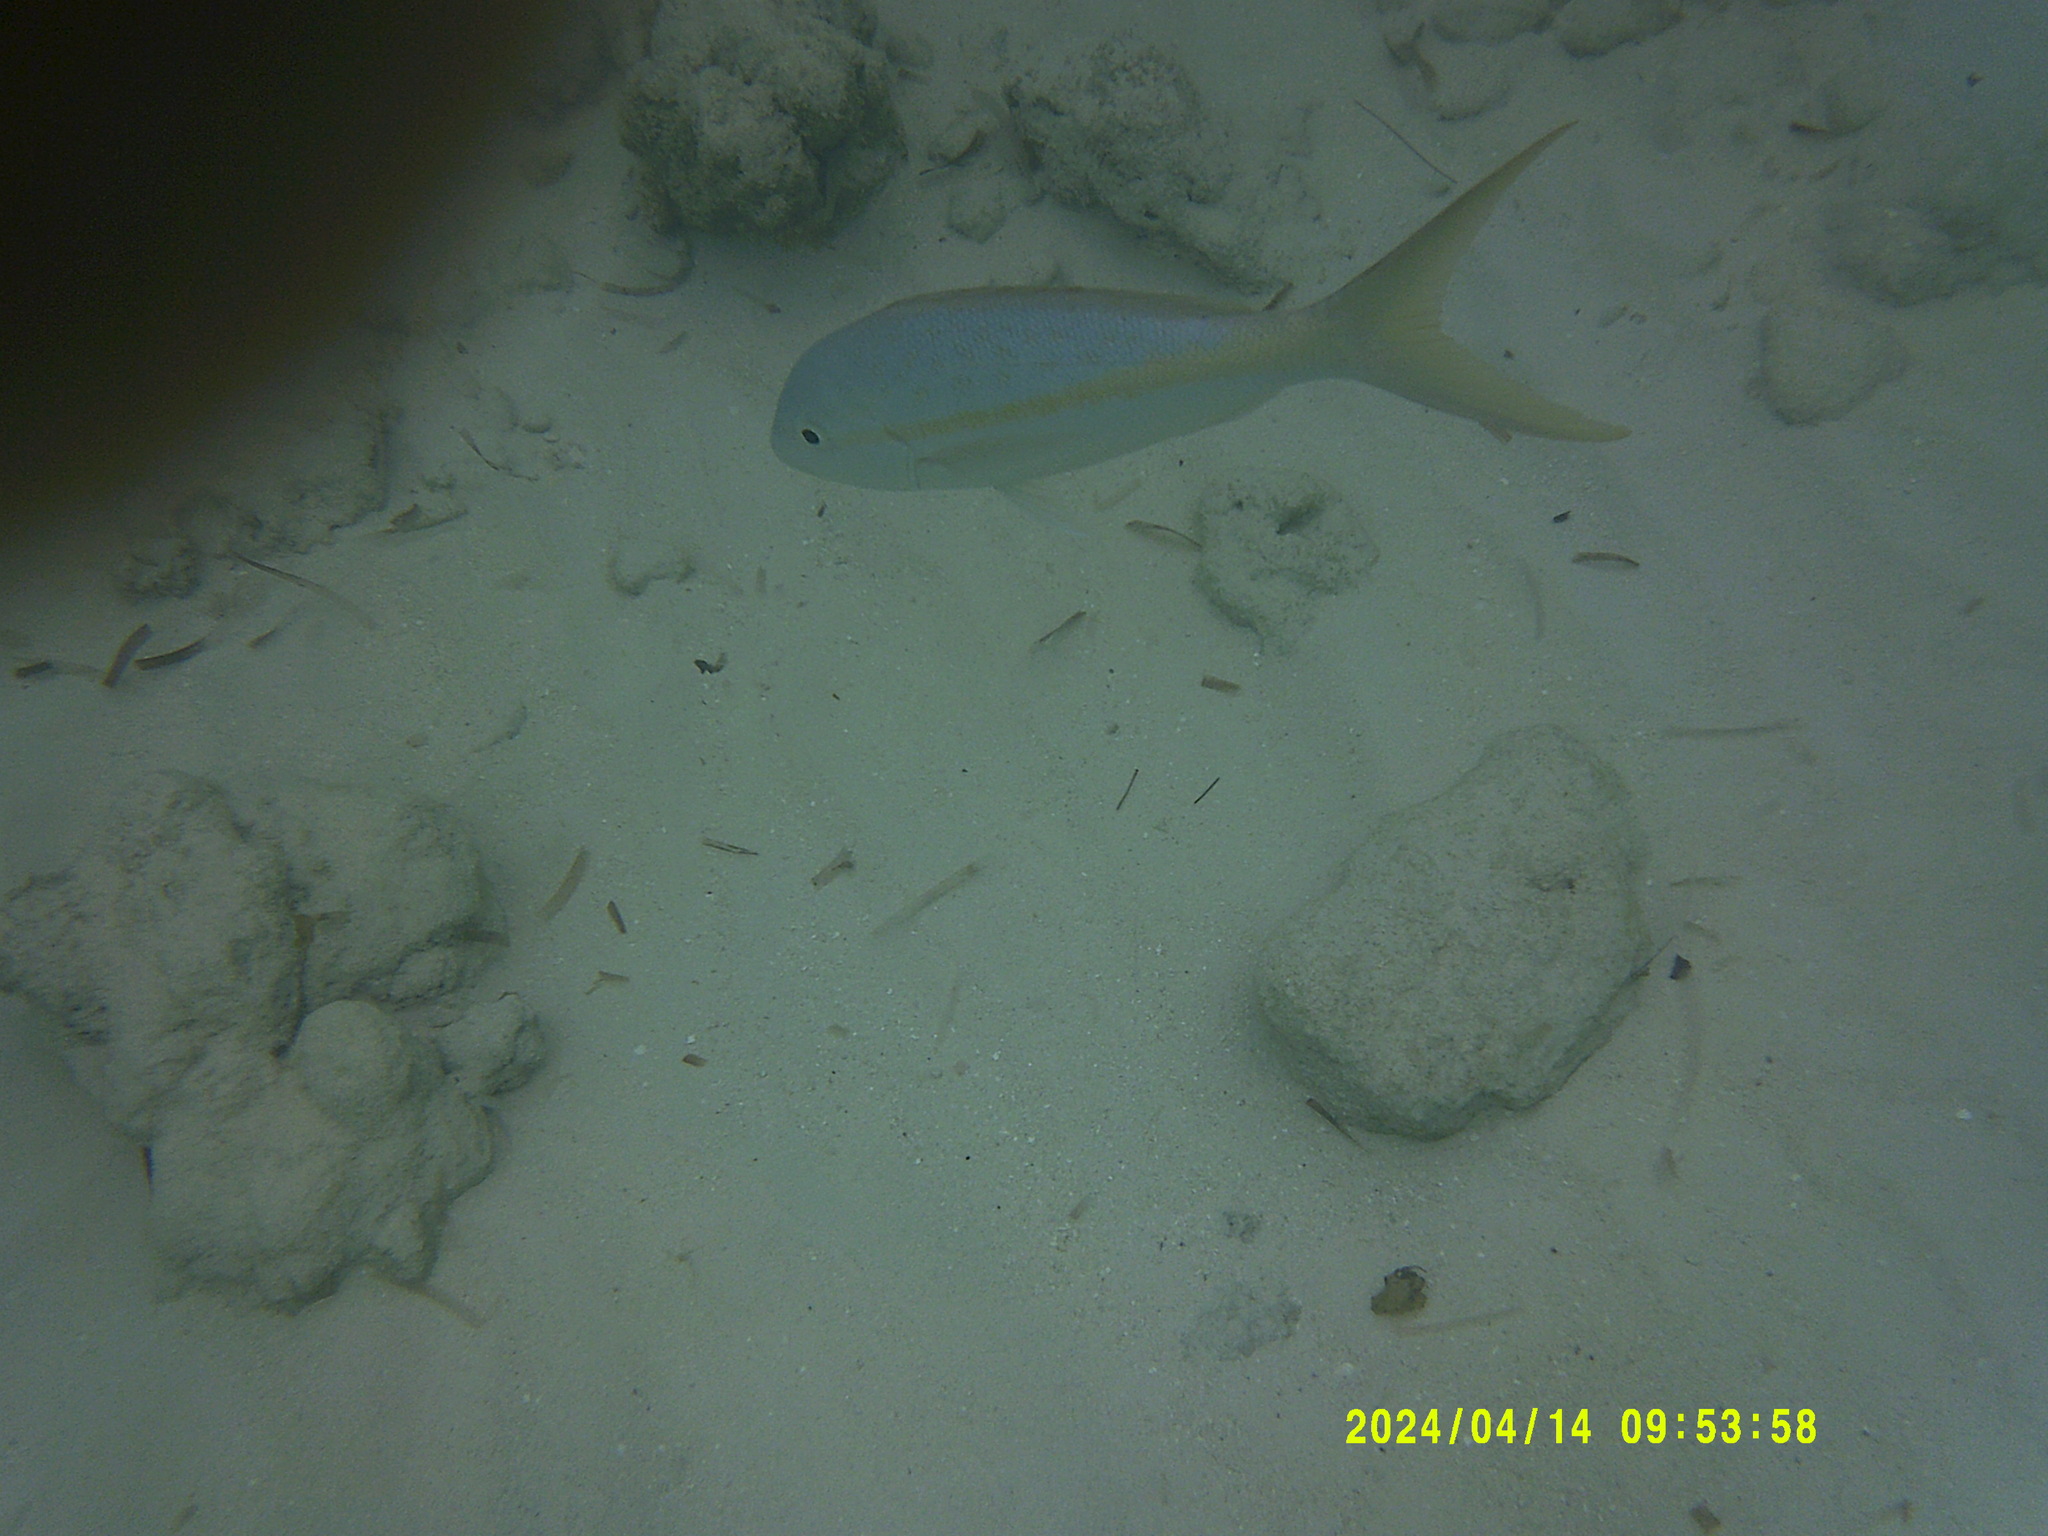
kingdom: Animalia
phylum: Chordata
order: Perciformes
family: Lutjanidae
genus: Ocyurus
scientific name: Ocyurus chrysurus
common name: Yellowtail snapper
